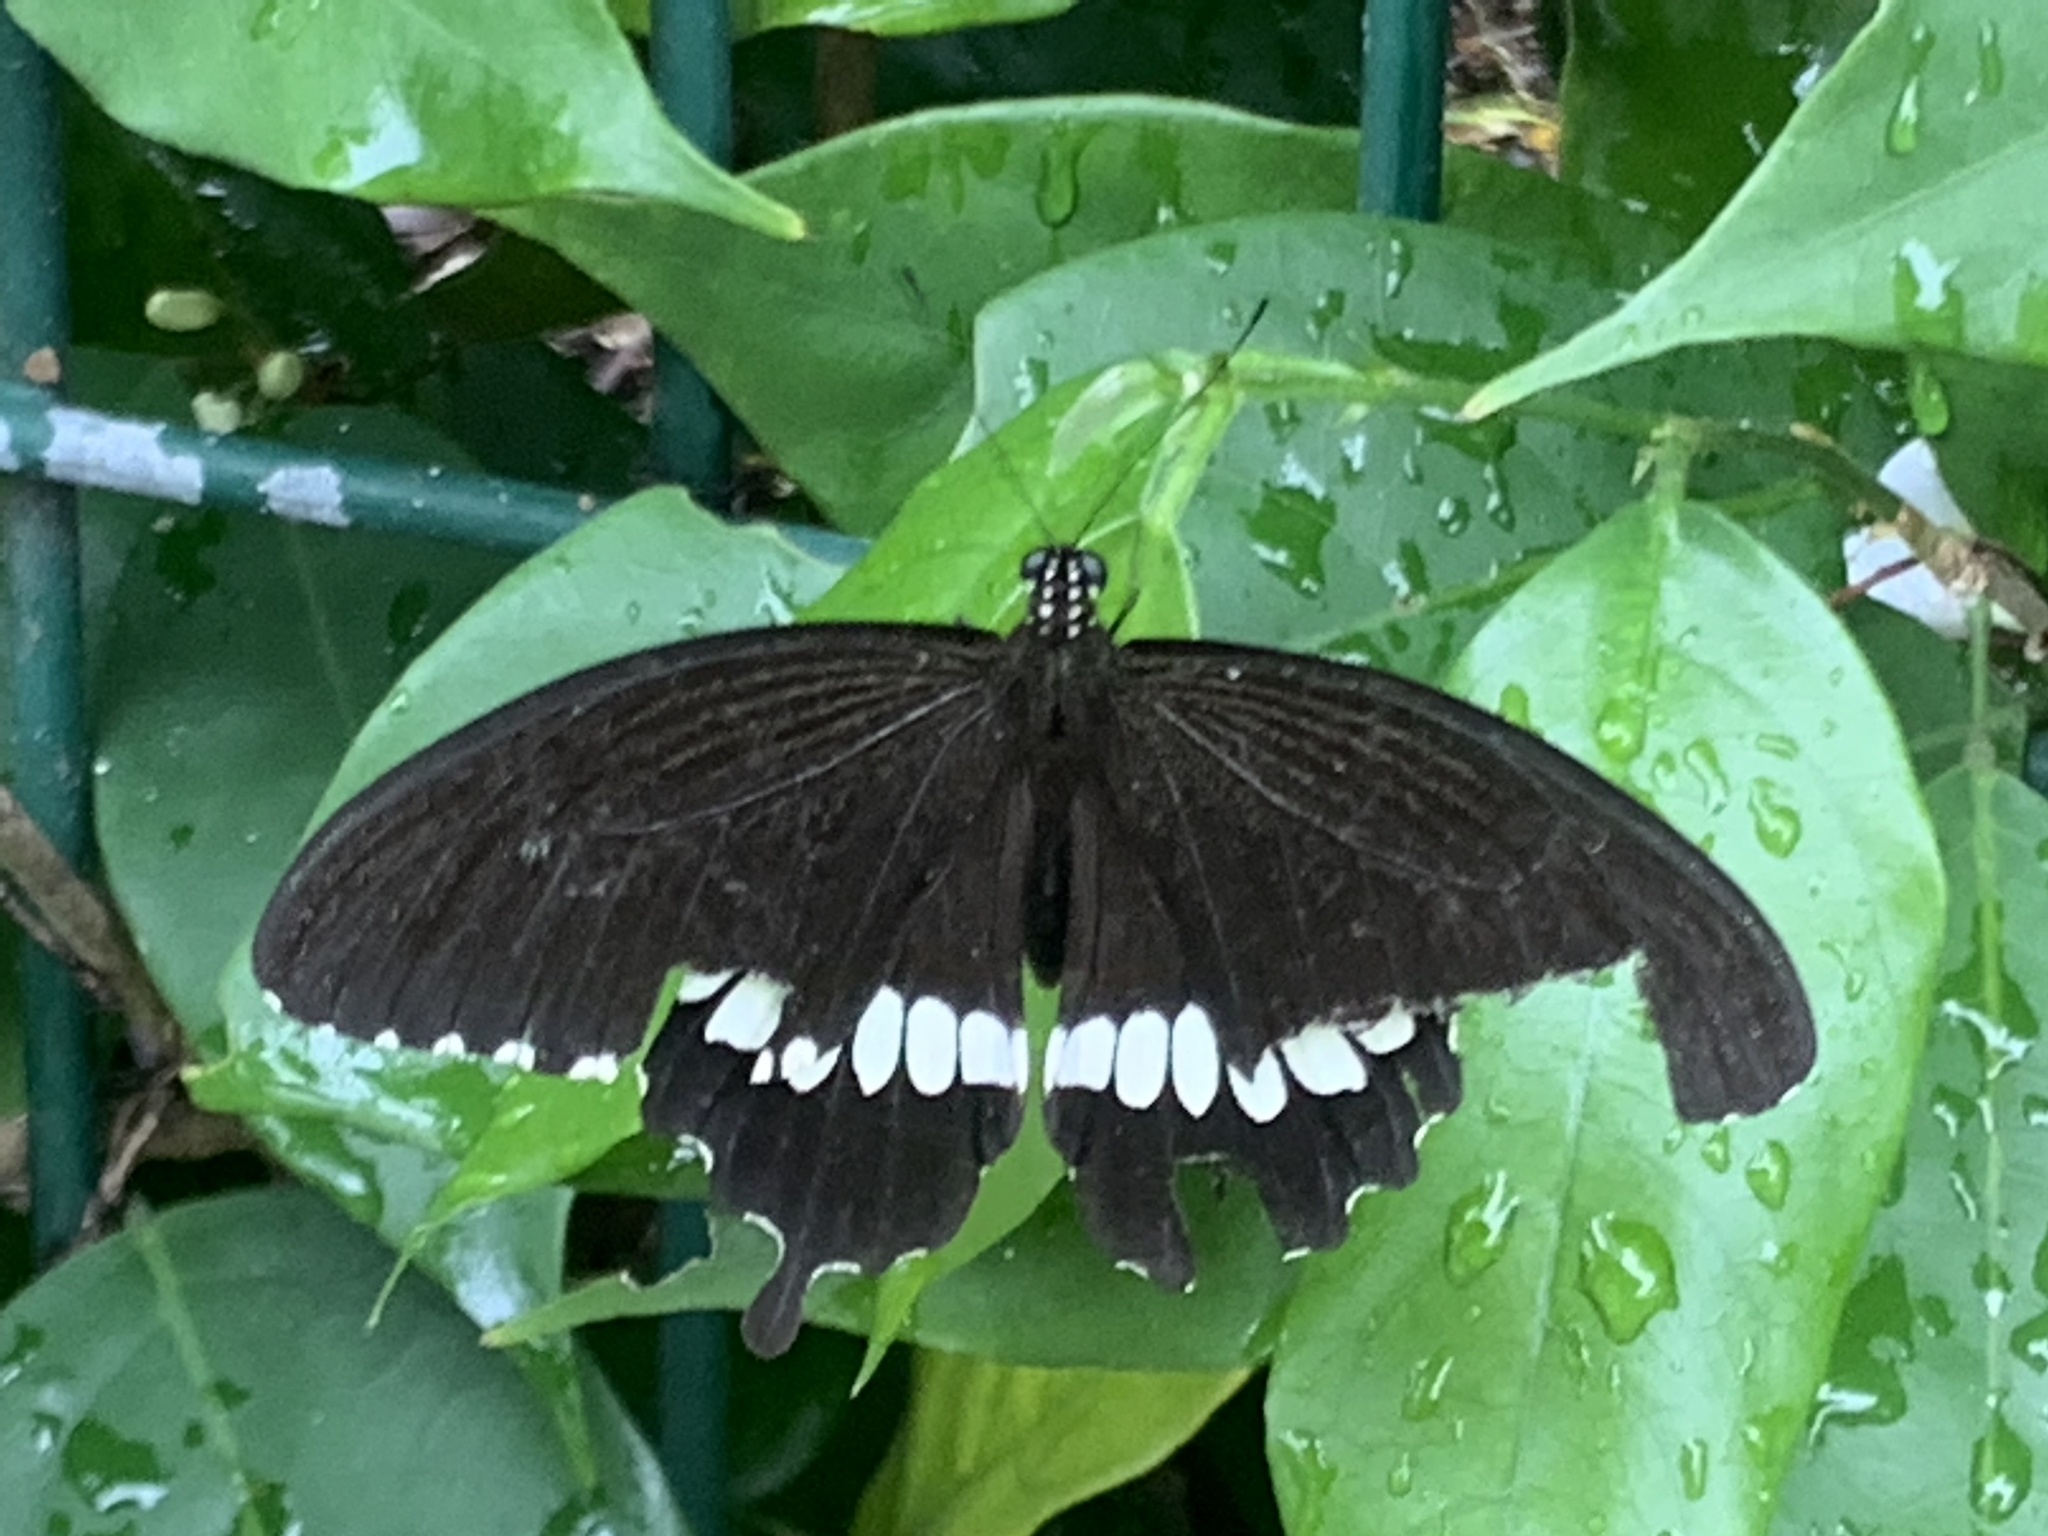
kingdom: Animalia
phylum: Arthropoda
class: Insecta
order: Lepidoptera
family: Papilionidae
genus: Papilio
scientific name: Papilio polytes
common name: Common mormon
